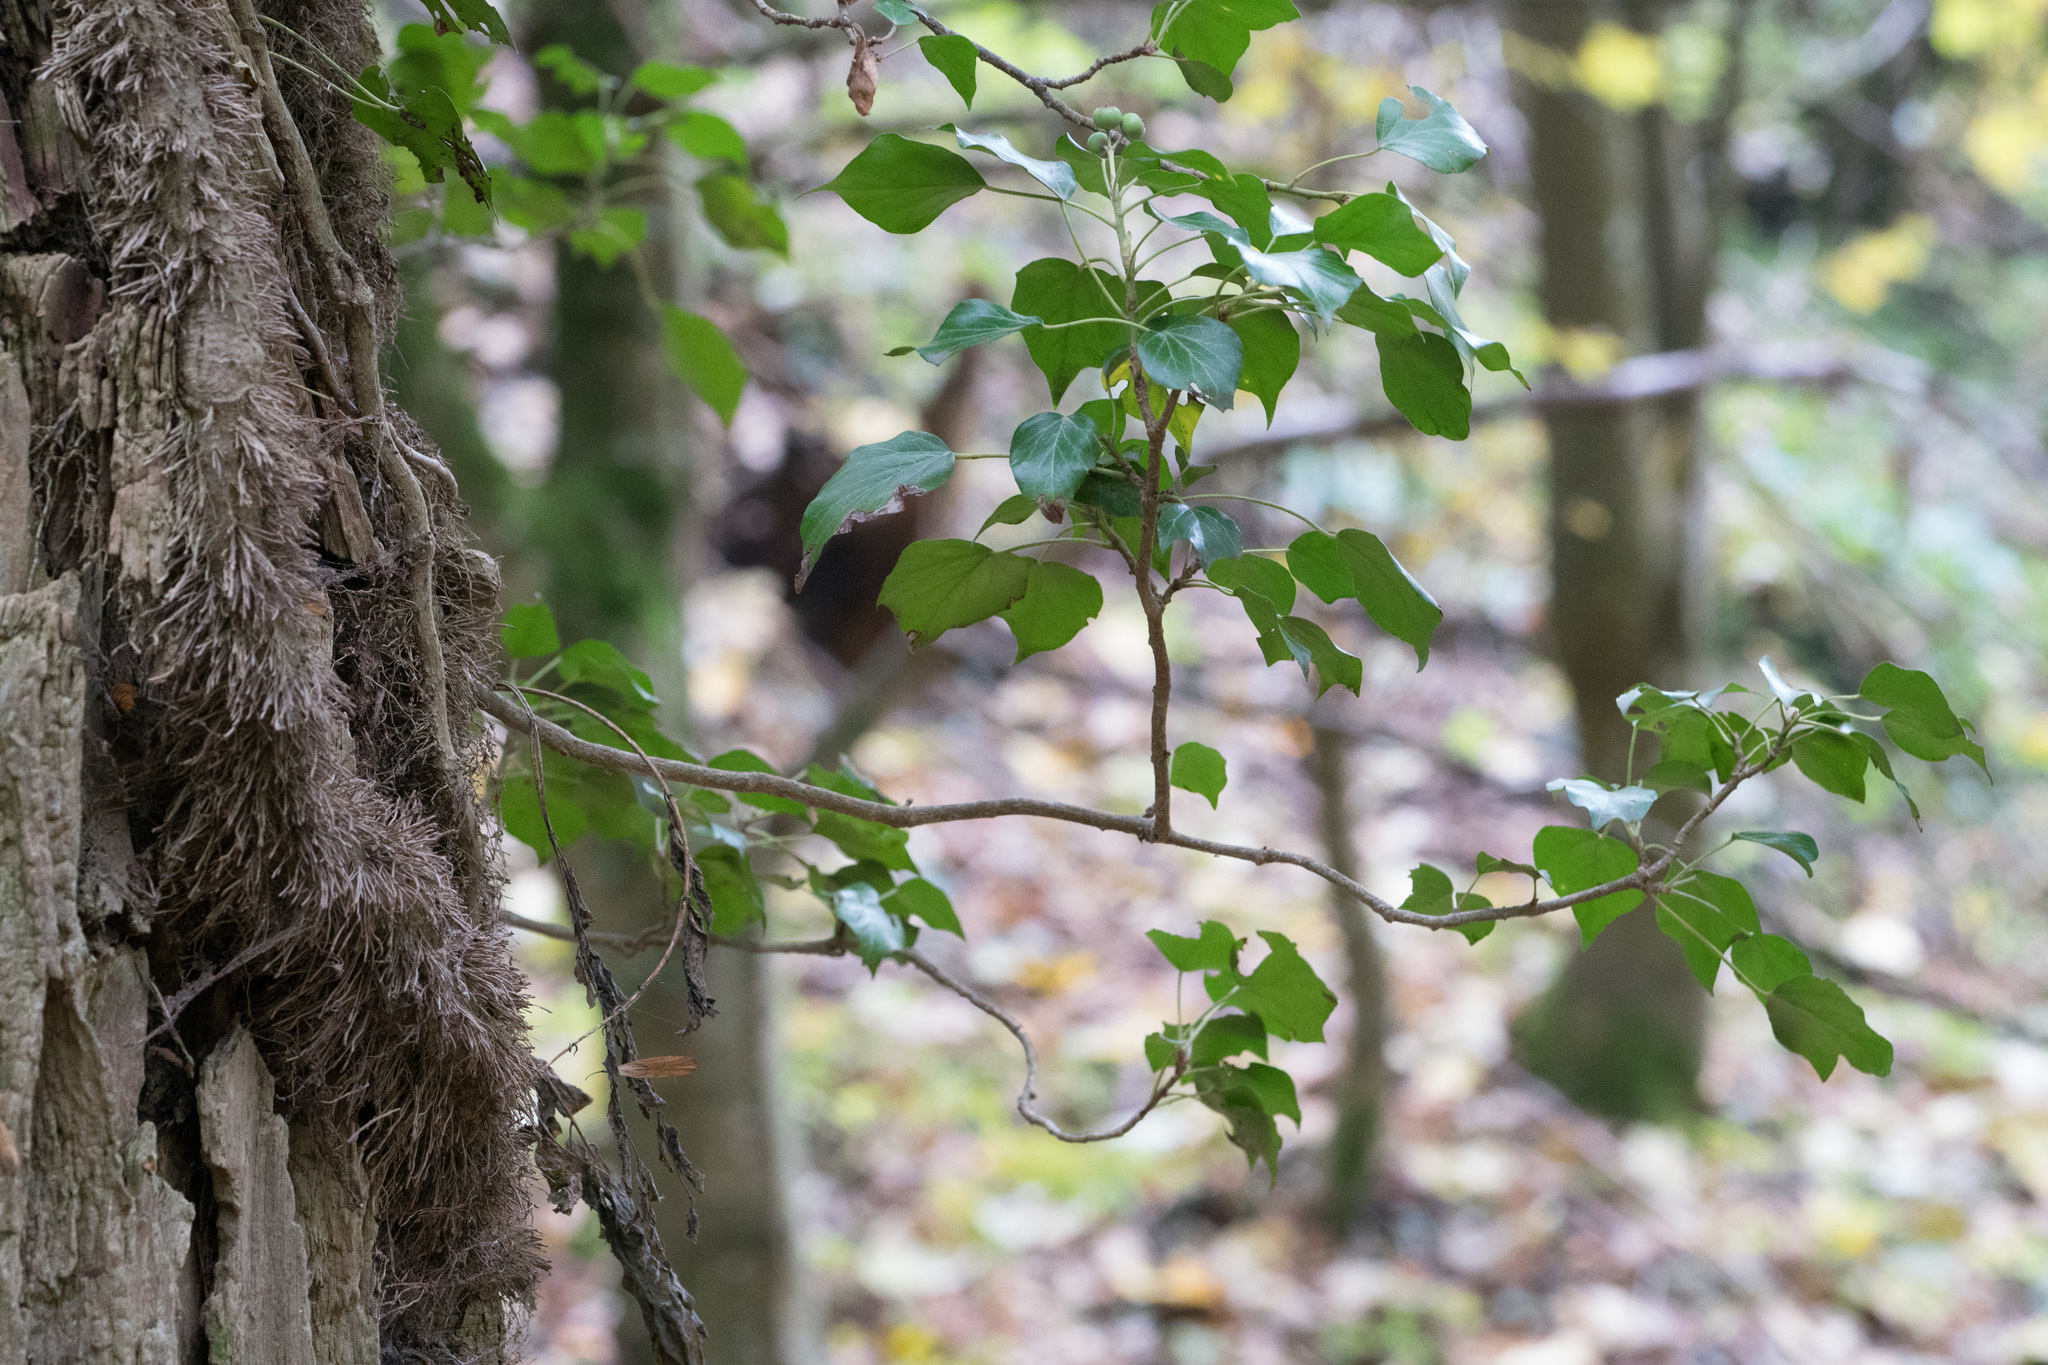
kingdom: Plantae
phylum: Tracheophyta
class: Magnoliopsida
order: Apiales
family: Araliaceae
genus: Hedera
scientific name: Hedera helix
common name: Ivy
